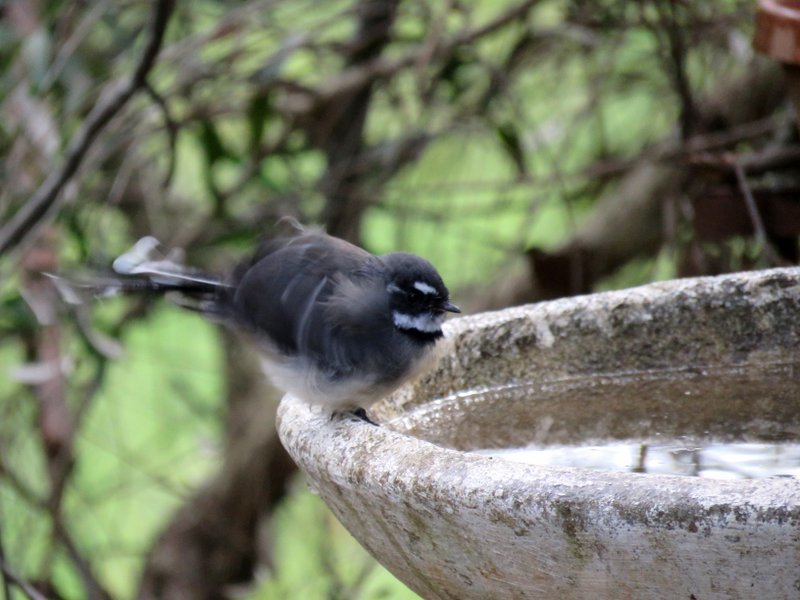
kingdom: Animalia
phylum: Chordata
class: Aves
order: Passeriformes
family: Rhipiduridae
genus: Rhipidura
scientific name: Rhipidura albiscapa
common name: Grey fantail
